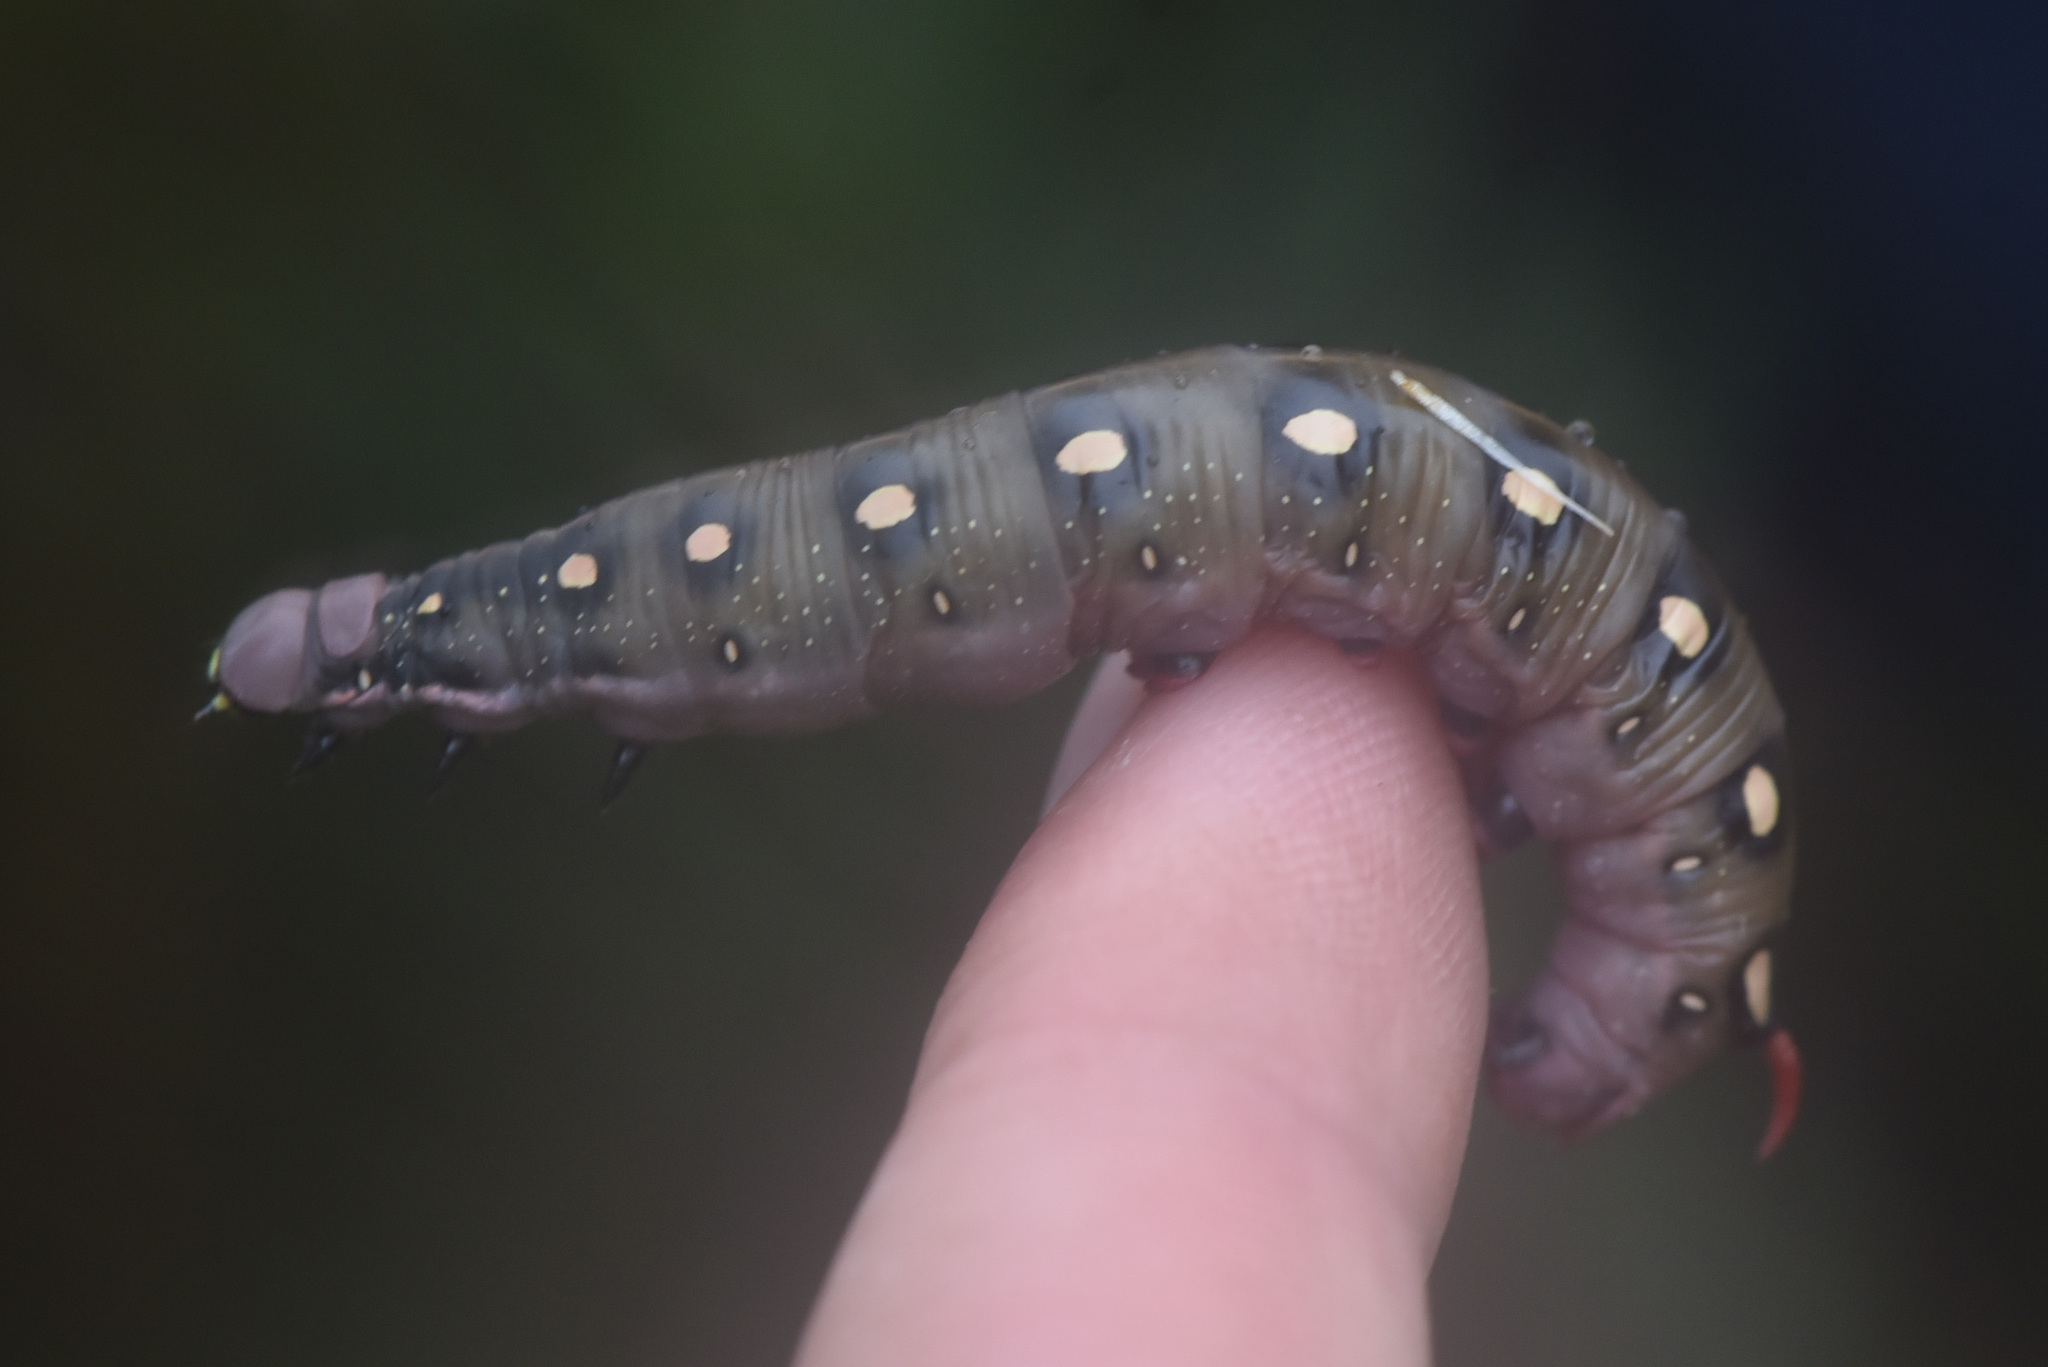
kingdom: Animalia
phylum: Arthropoda
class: Insecta
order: Lepidoptera
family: Sphingidae
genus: Hyles
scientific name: Hyles gallii
